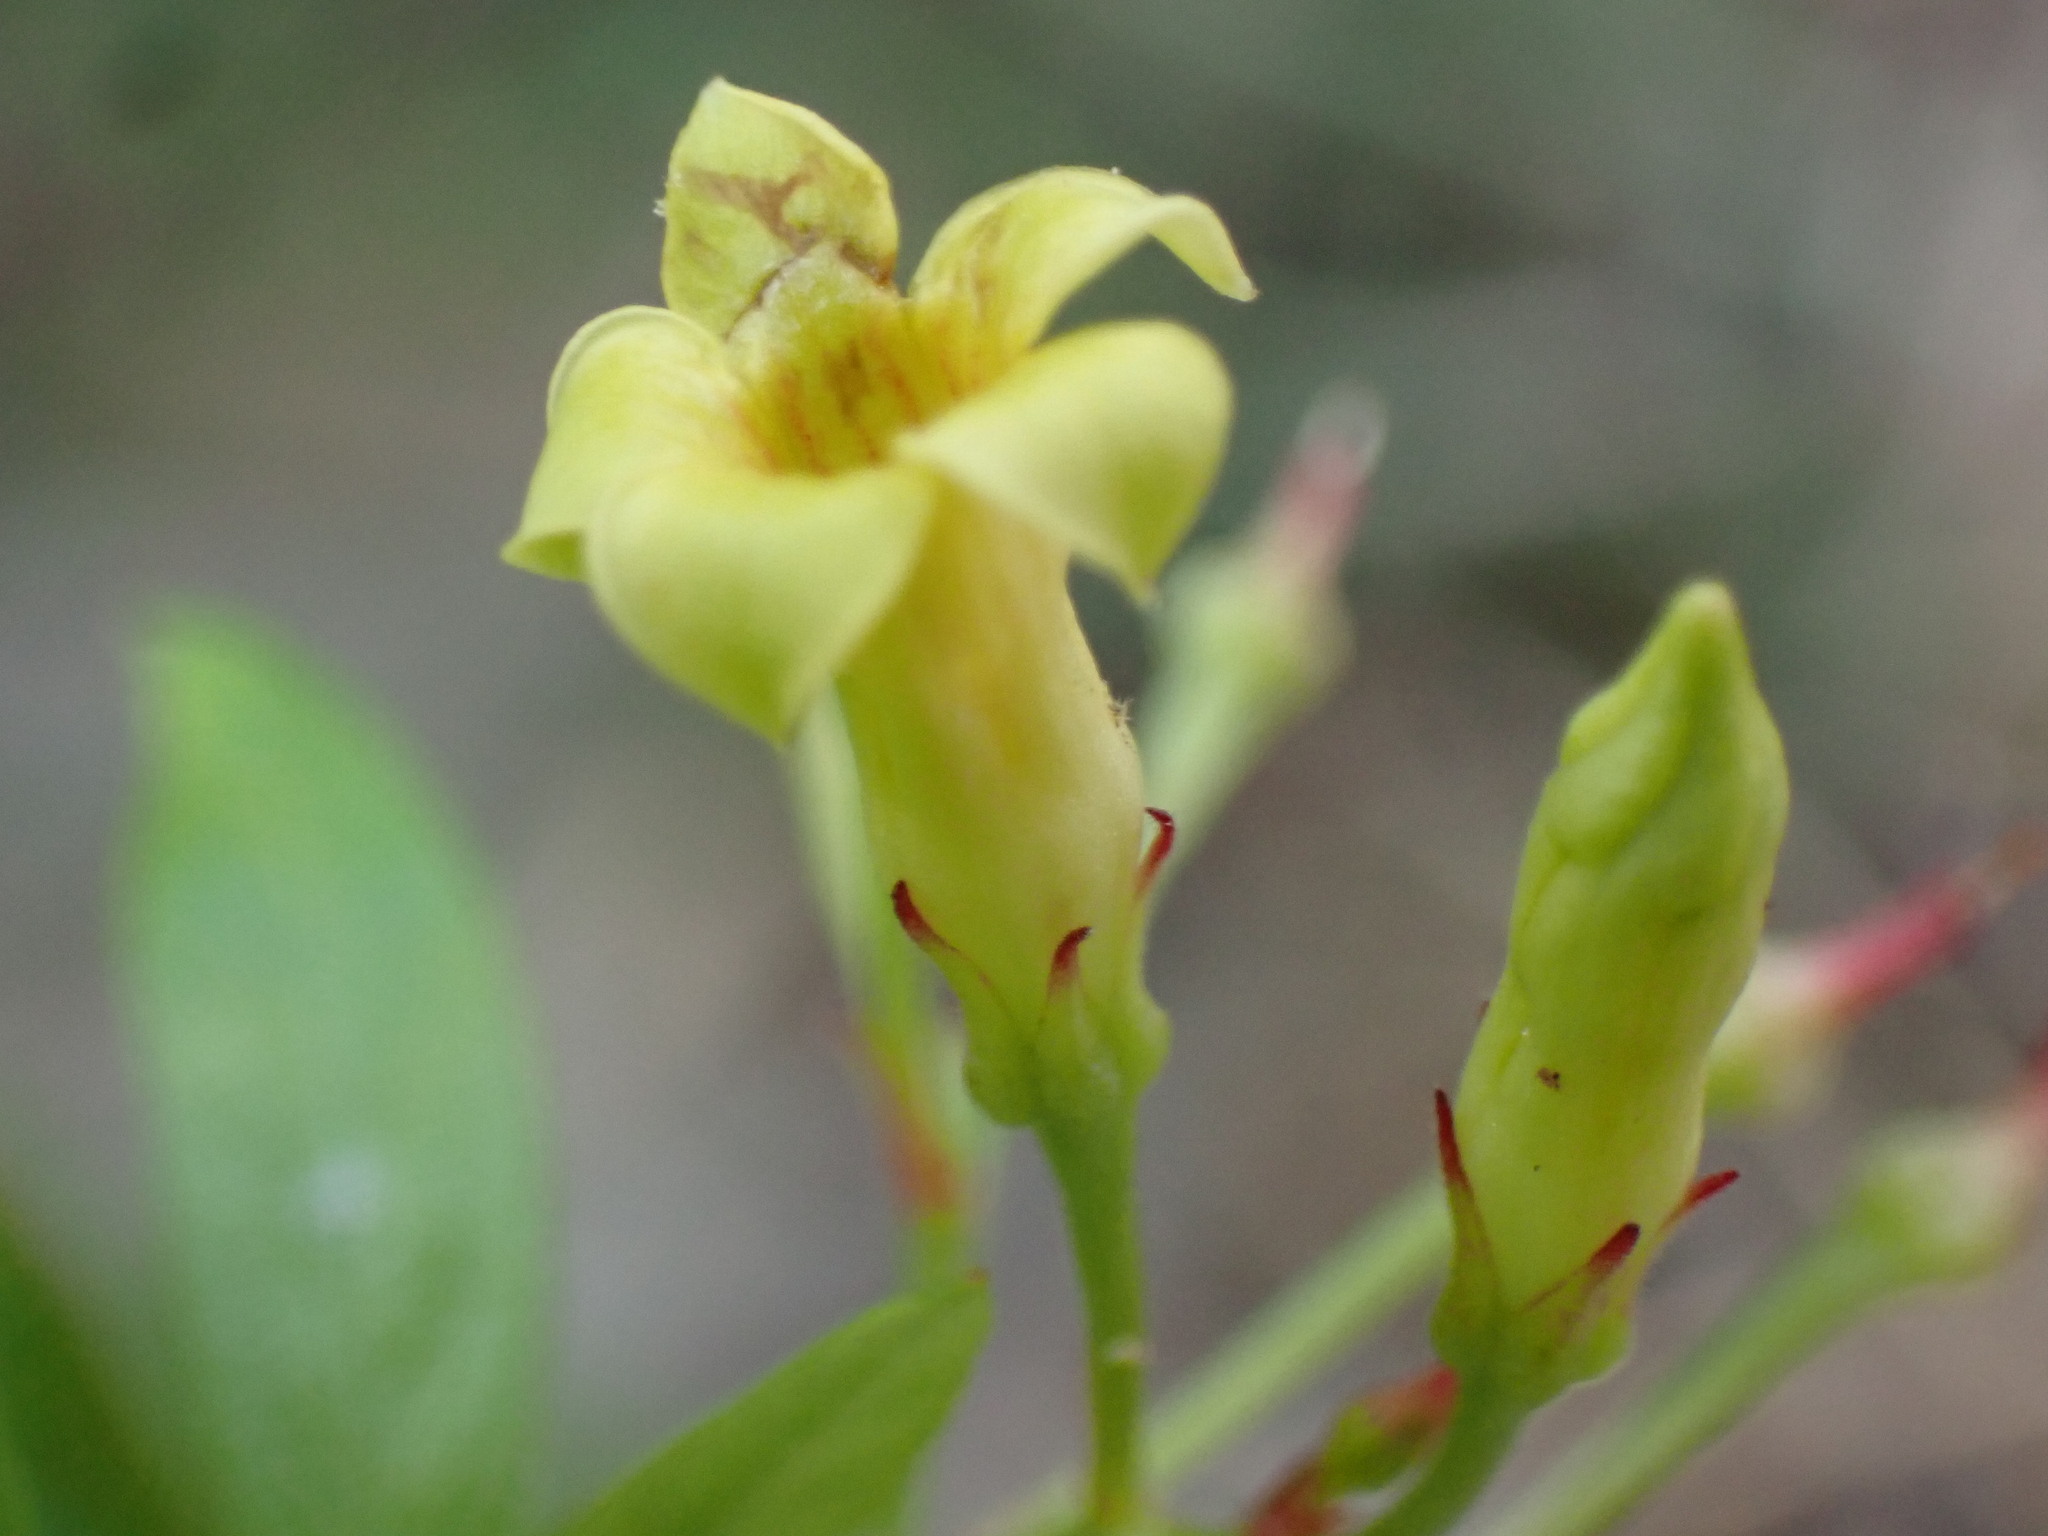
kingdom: Plantae
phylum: Tracheophyta
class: Magnoliopsida
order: Gentianales
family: Apocynaceae
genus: Thyrsanthella
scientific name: Thyrsanthella difformis
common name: Climbing dogbane
